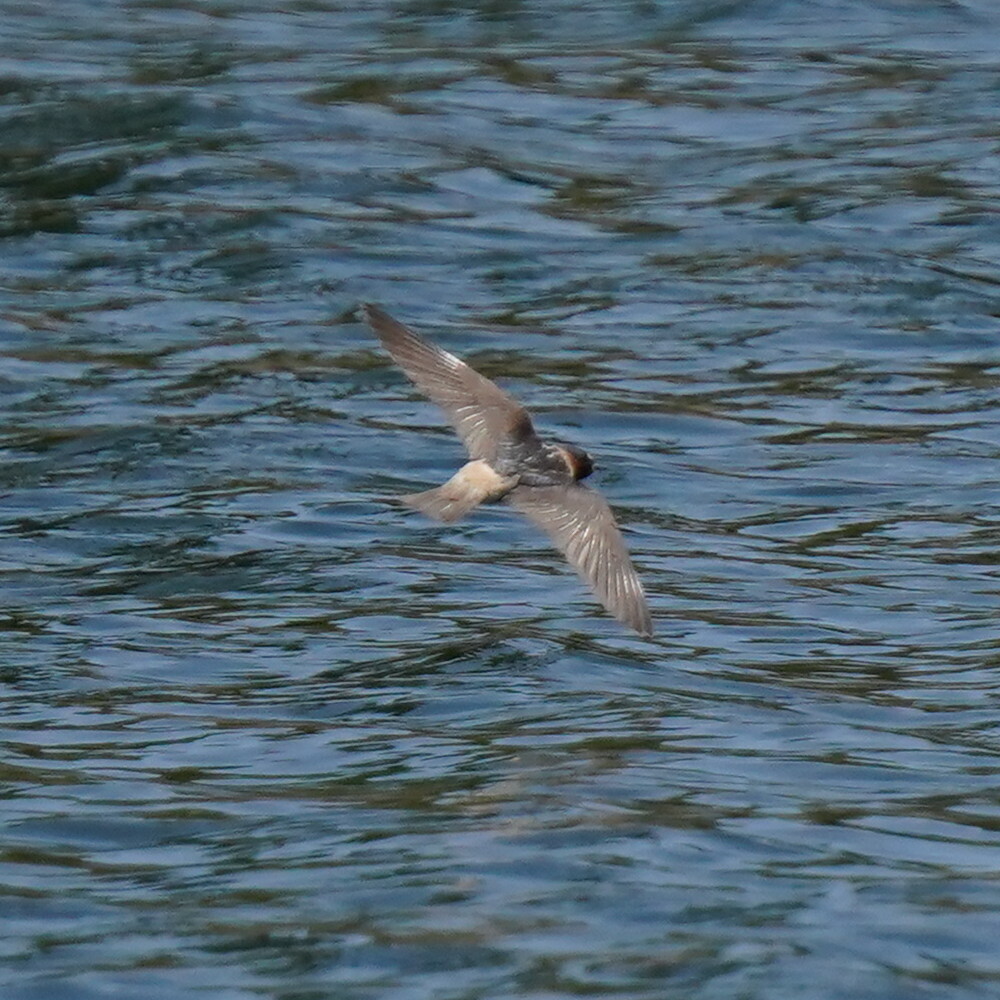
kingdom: Animalia
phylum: Chordata
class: Aves
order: Passeriformes
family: Hirundinidae
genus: Petrochelidon
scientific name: Petrochelidon pyrrhonota
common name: American cliff swallow
